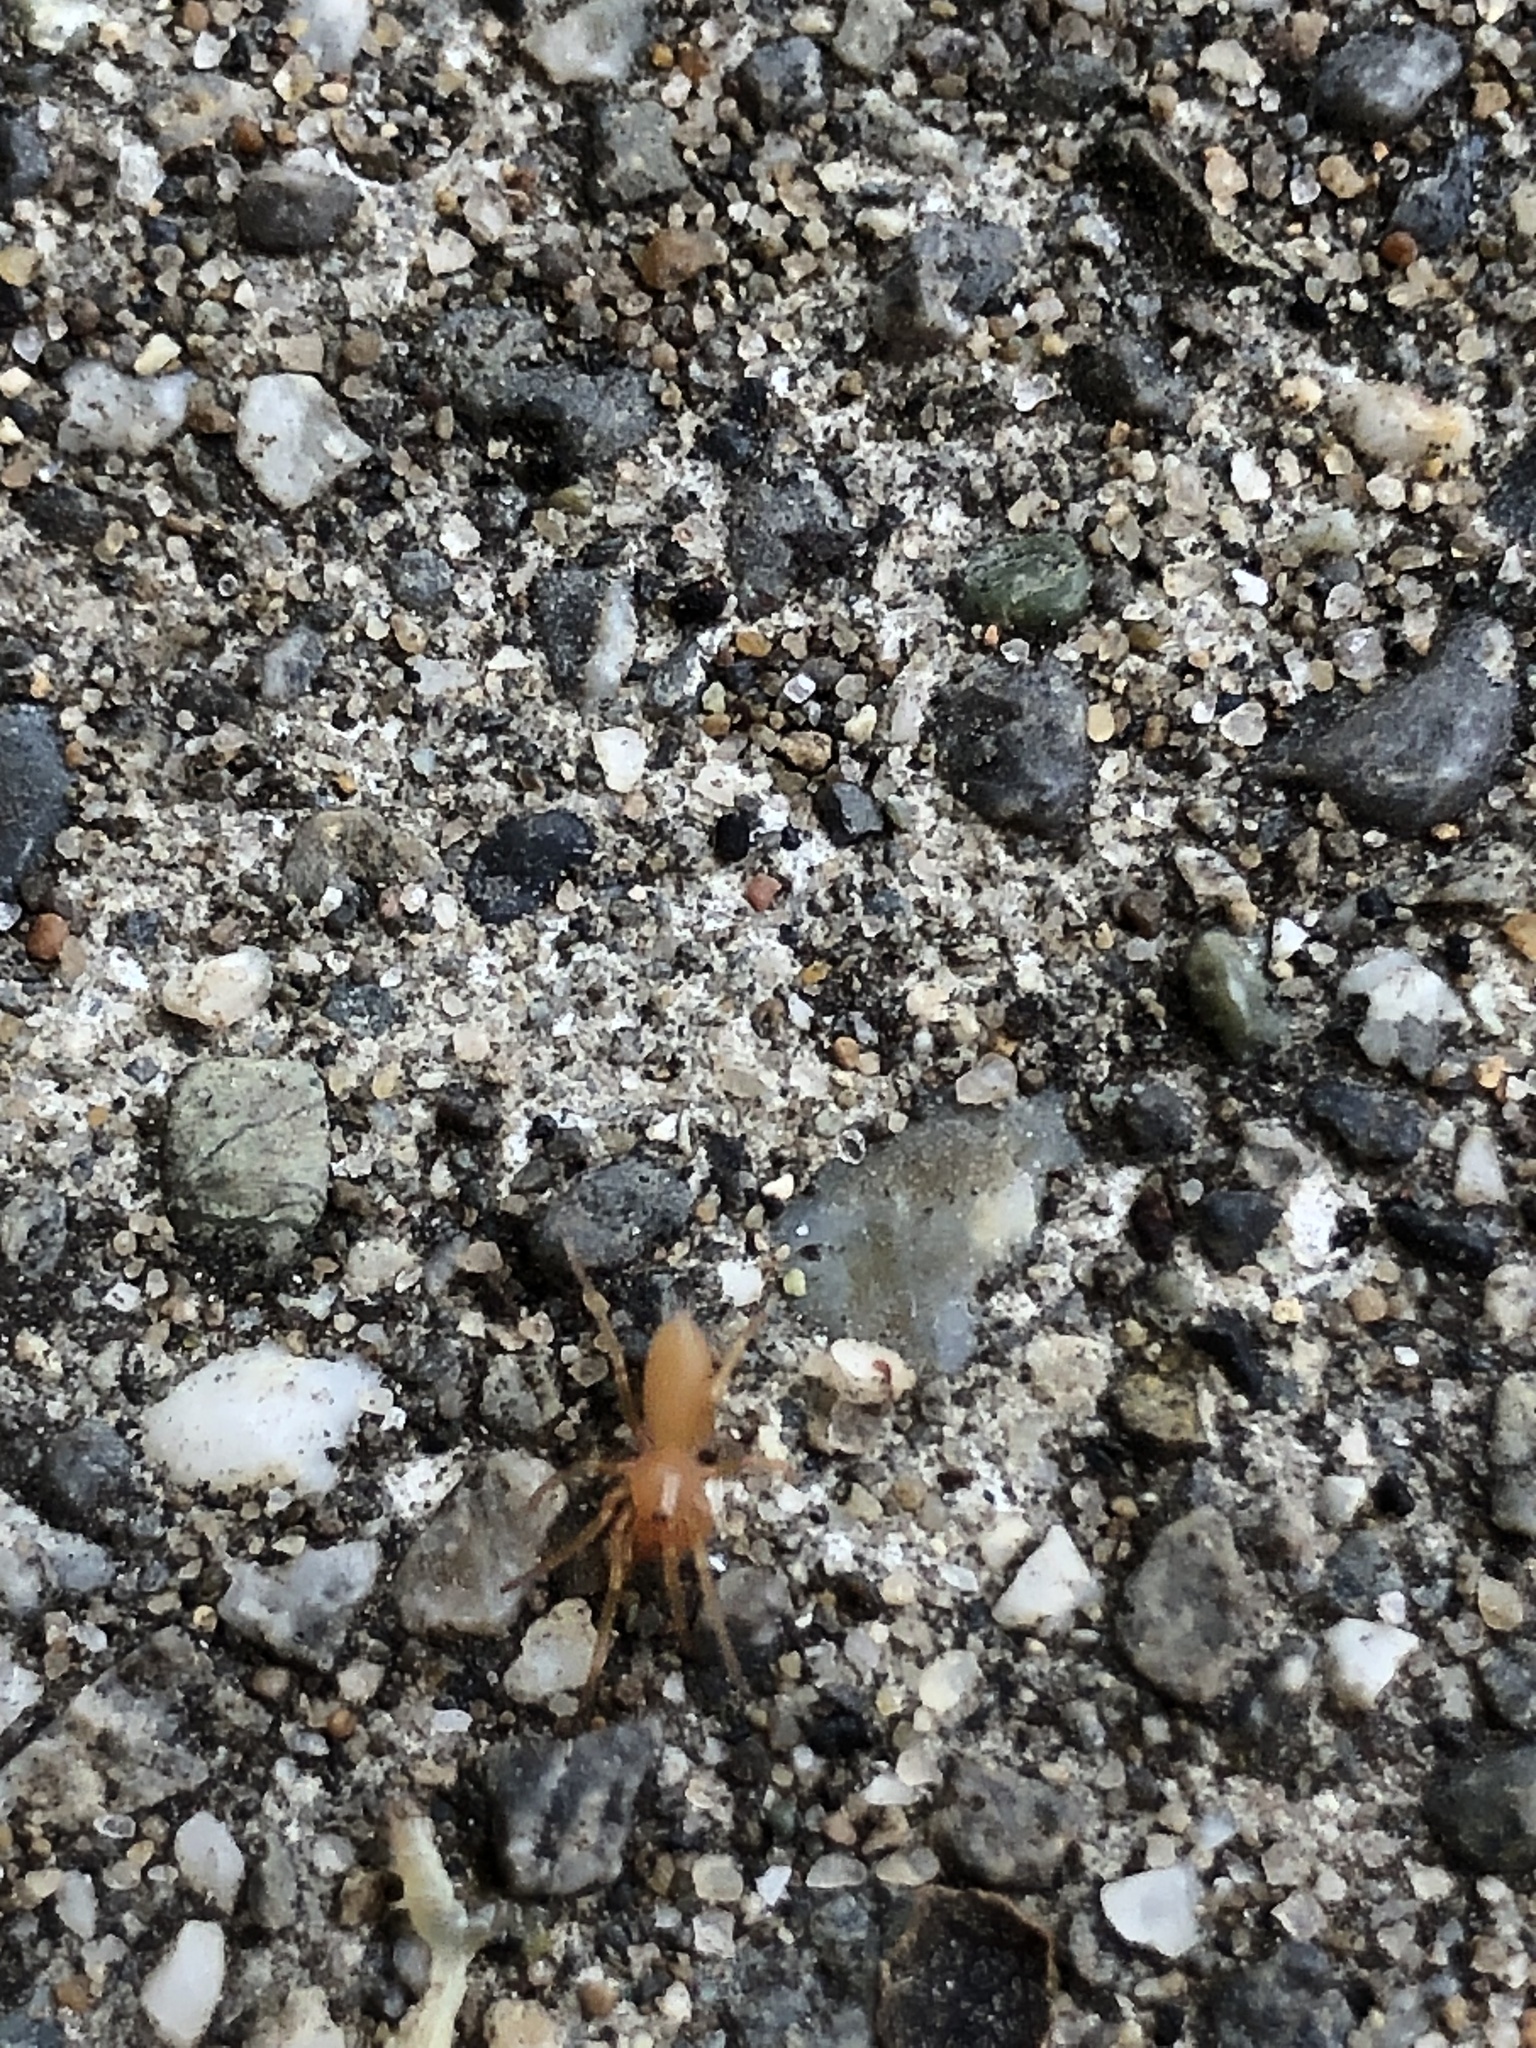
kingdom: Animalia
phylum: Arthropoda
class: Arachnida
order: Araneae
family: Dysderidae
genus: Dysdera
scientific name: Dysdera crocata
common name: Woodlouse spider
